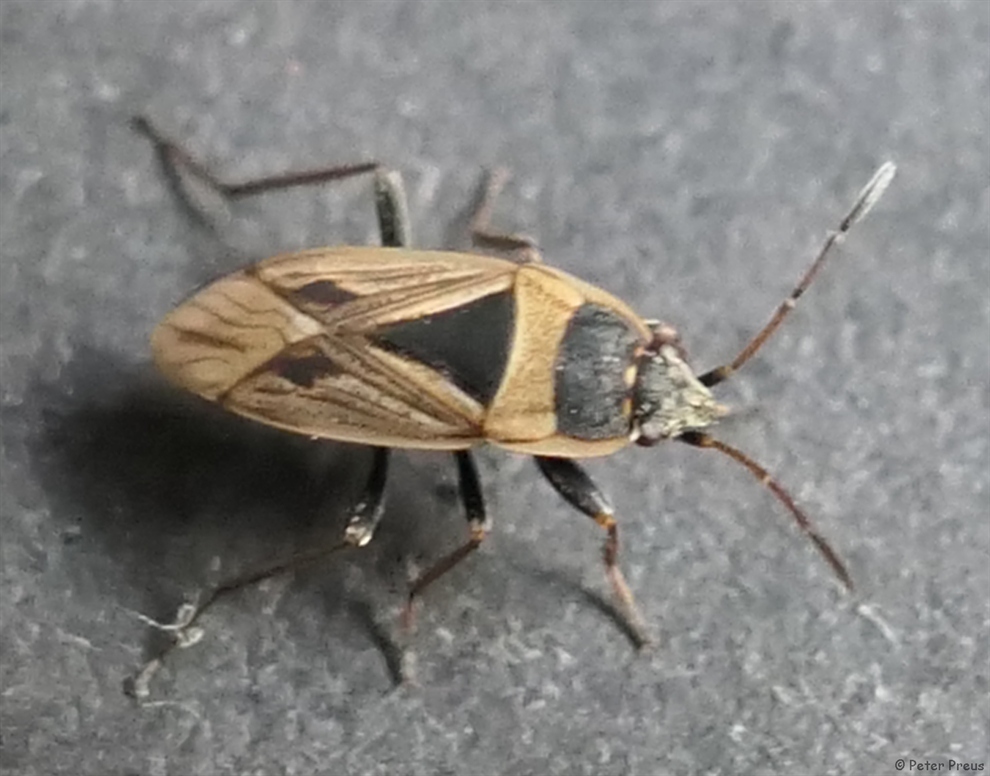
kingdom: Animalia
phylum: Arthropoda
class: Insecta
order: Hemiptera
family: Rhyparochromidae
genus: Xanthochilus
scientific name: Xanthochilus quadratus
